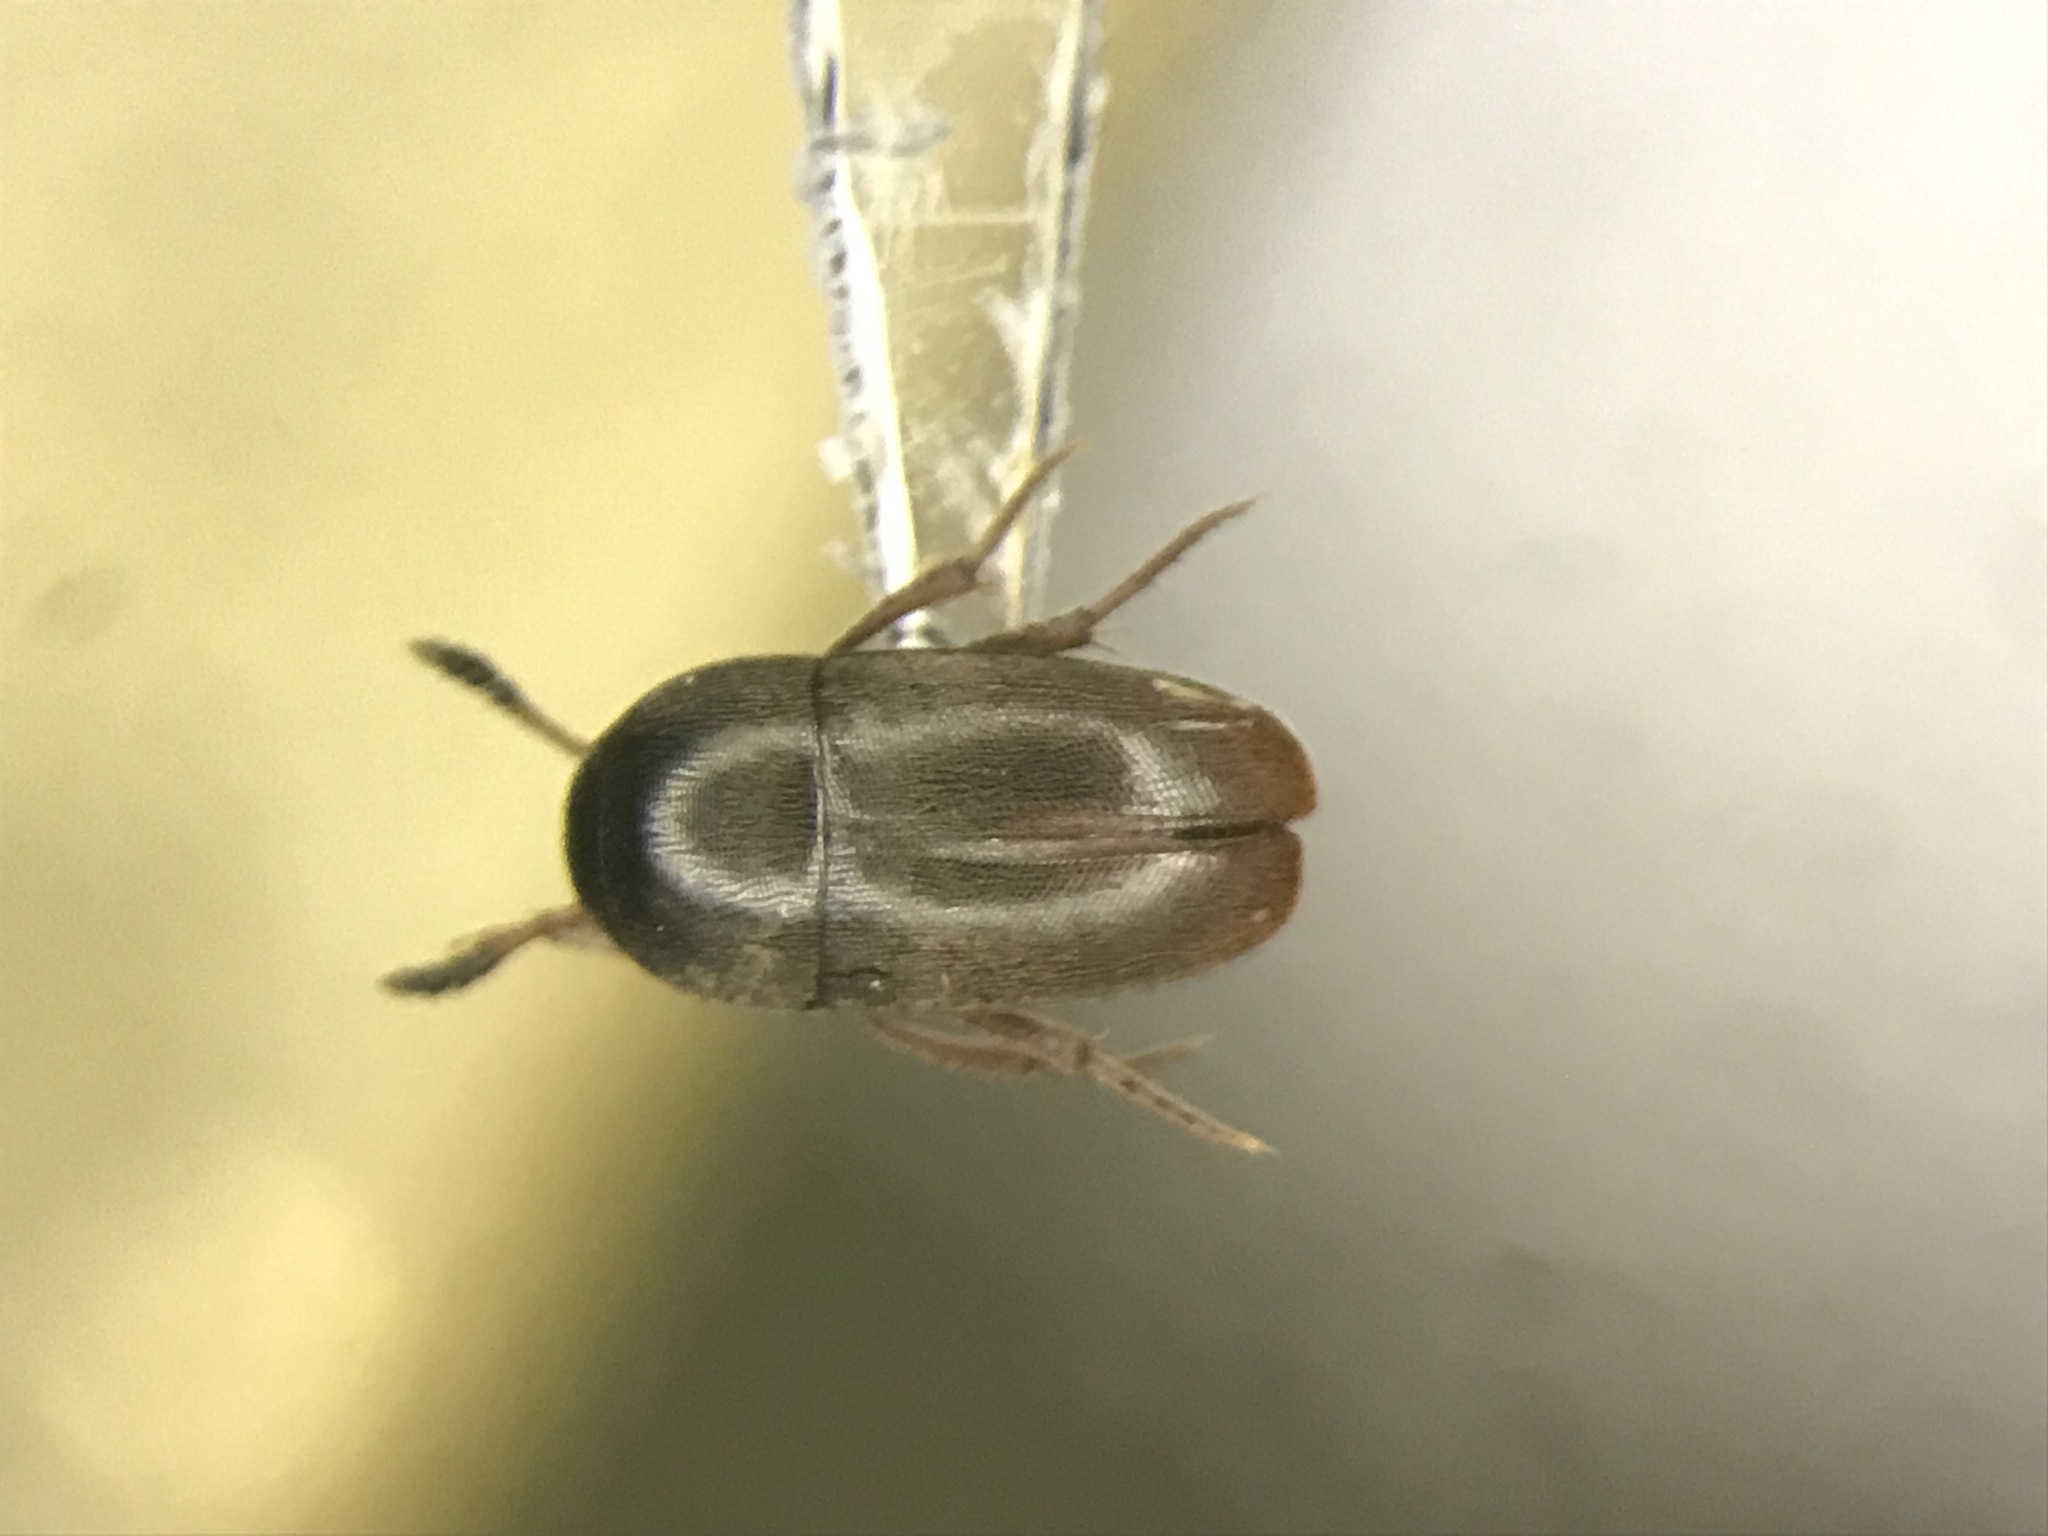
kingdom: Animalia
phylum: Arthropoda
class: Insecta
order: Coleoptera
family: Leiodidae
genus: Ptomaphagus
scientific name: Ptomaphagus medius
